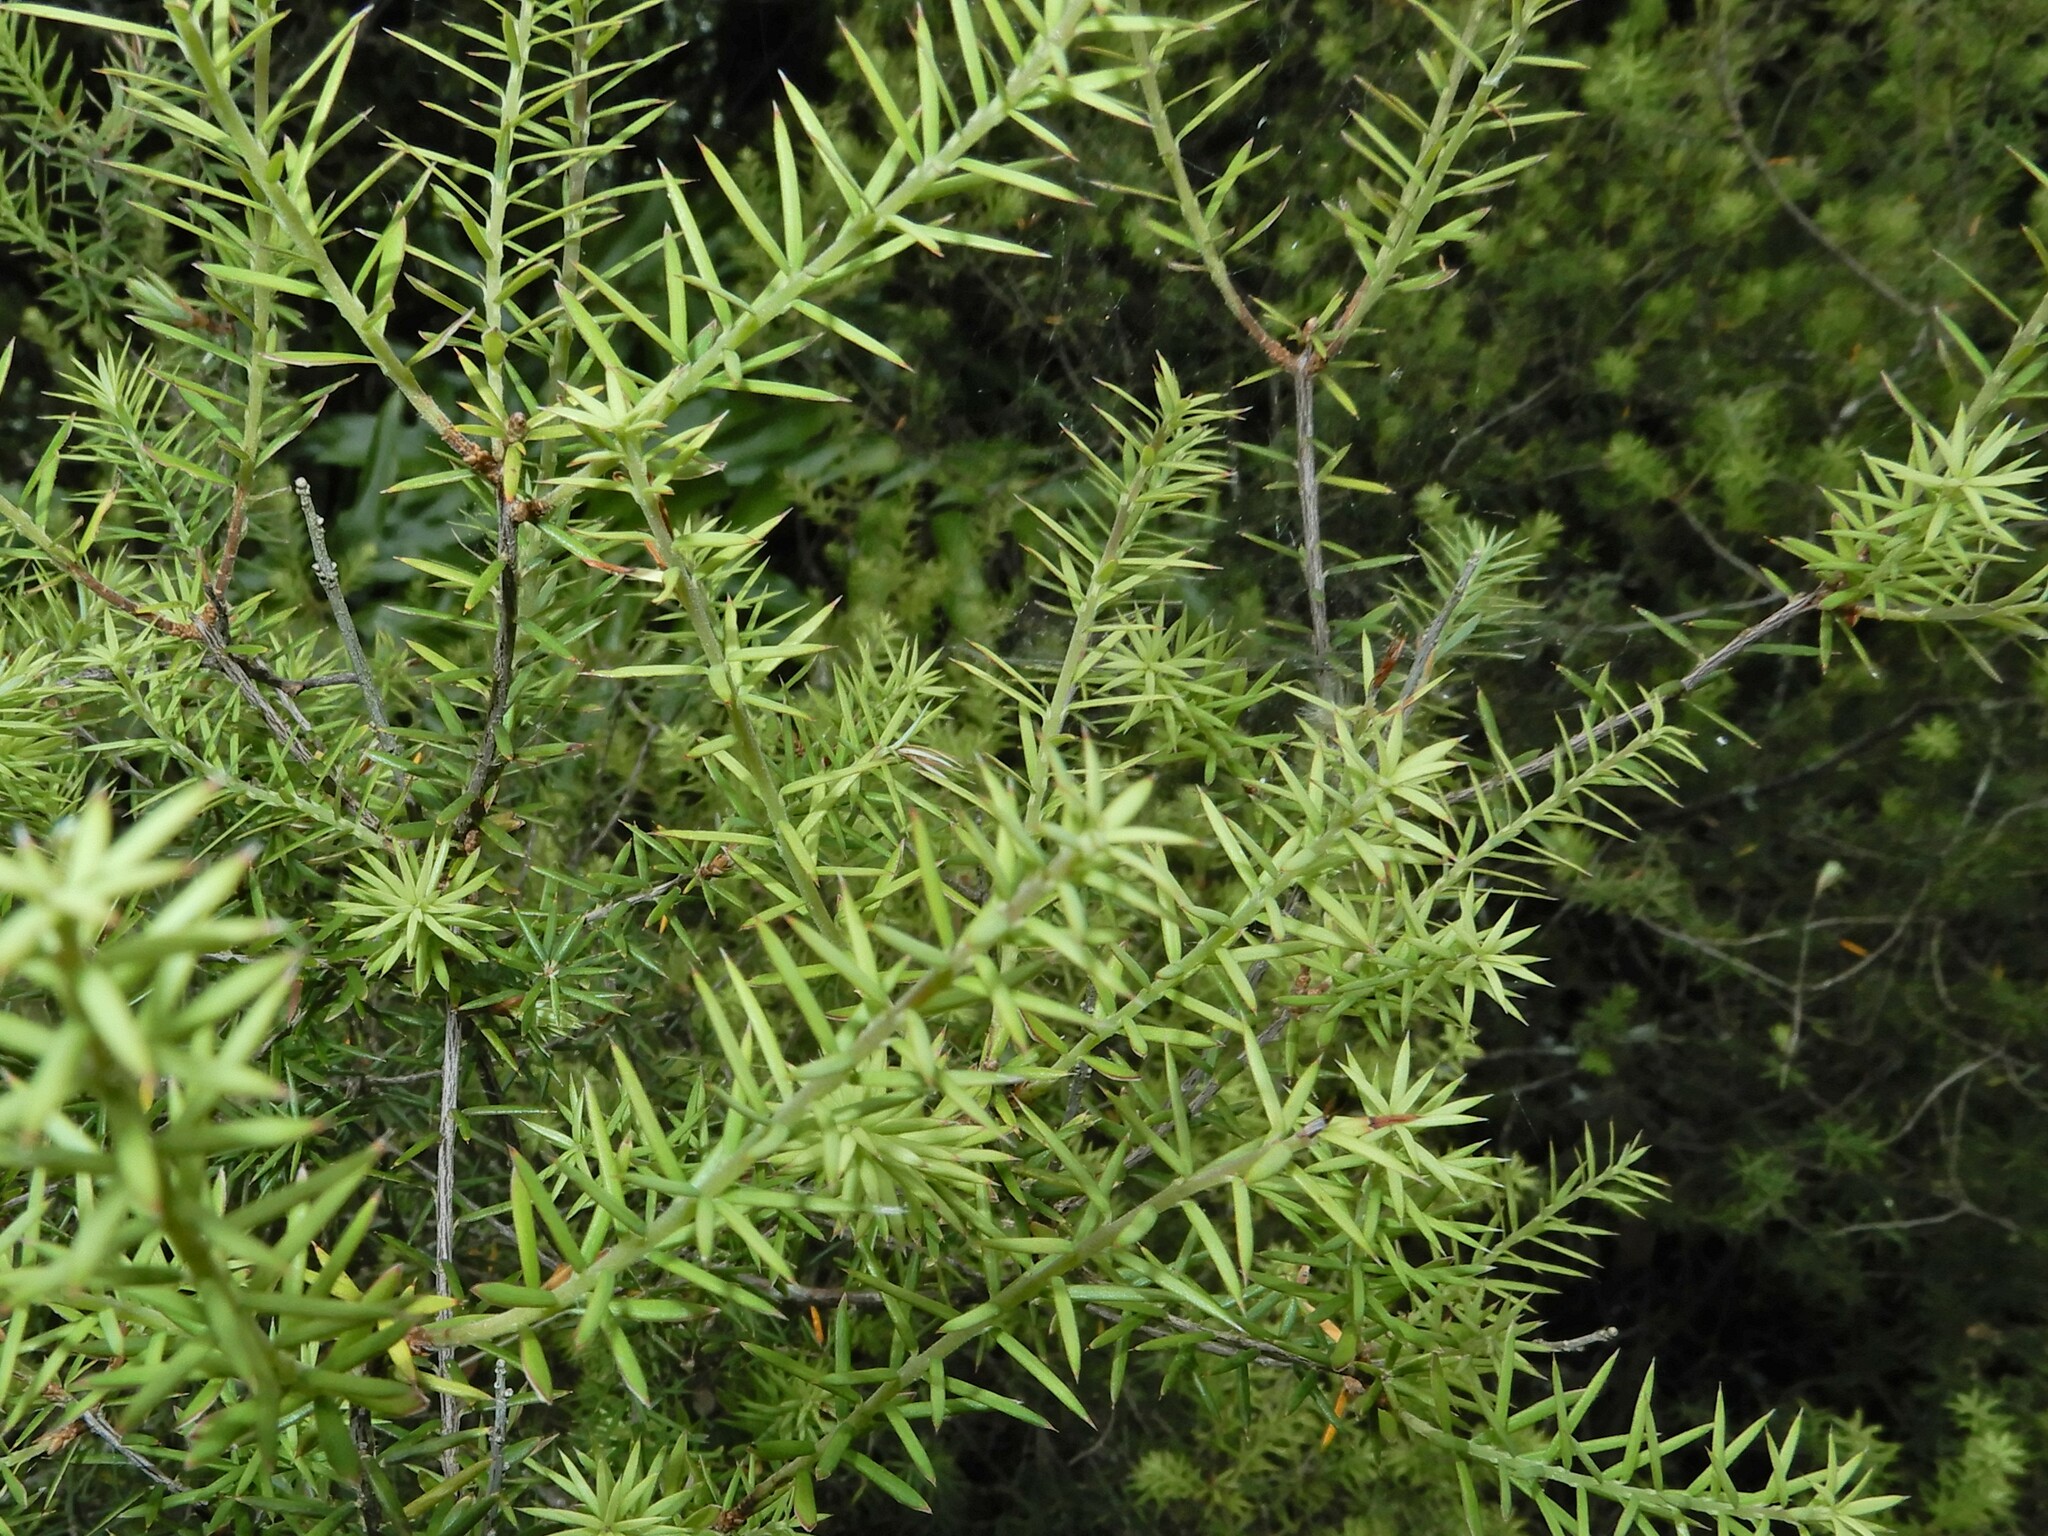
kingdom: Plantae
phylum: Tracheophyta
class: Magnoliopsida
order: Ericales
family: Ericaceae
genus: Leptecophylla
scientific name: Leptecophylla juniperina
